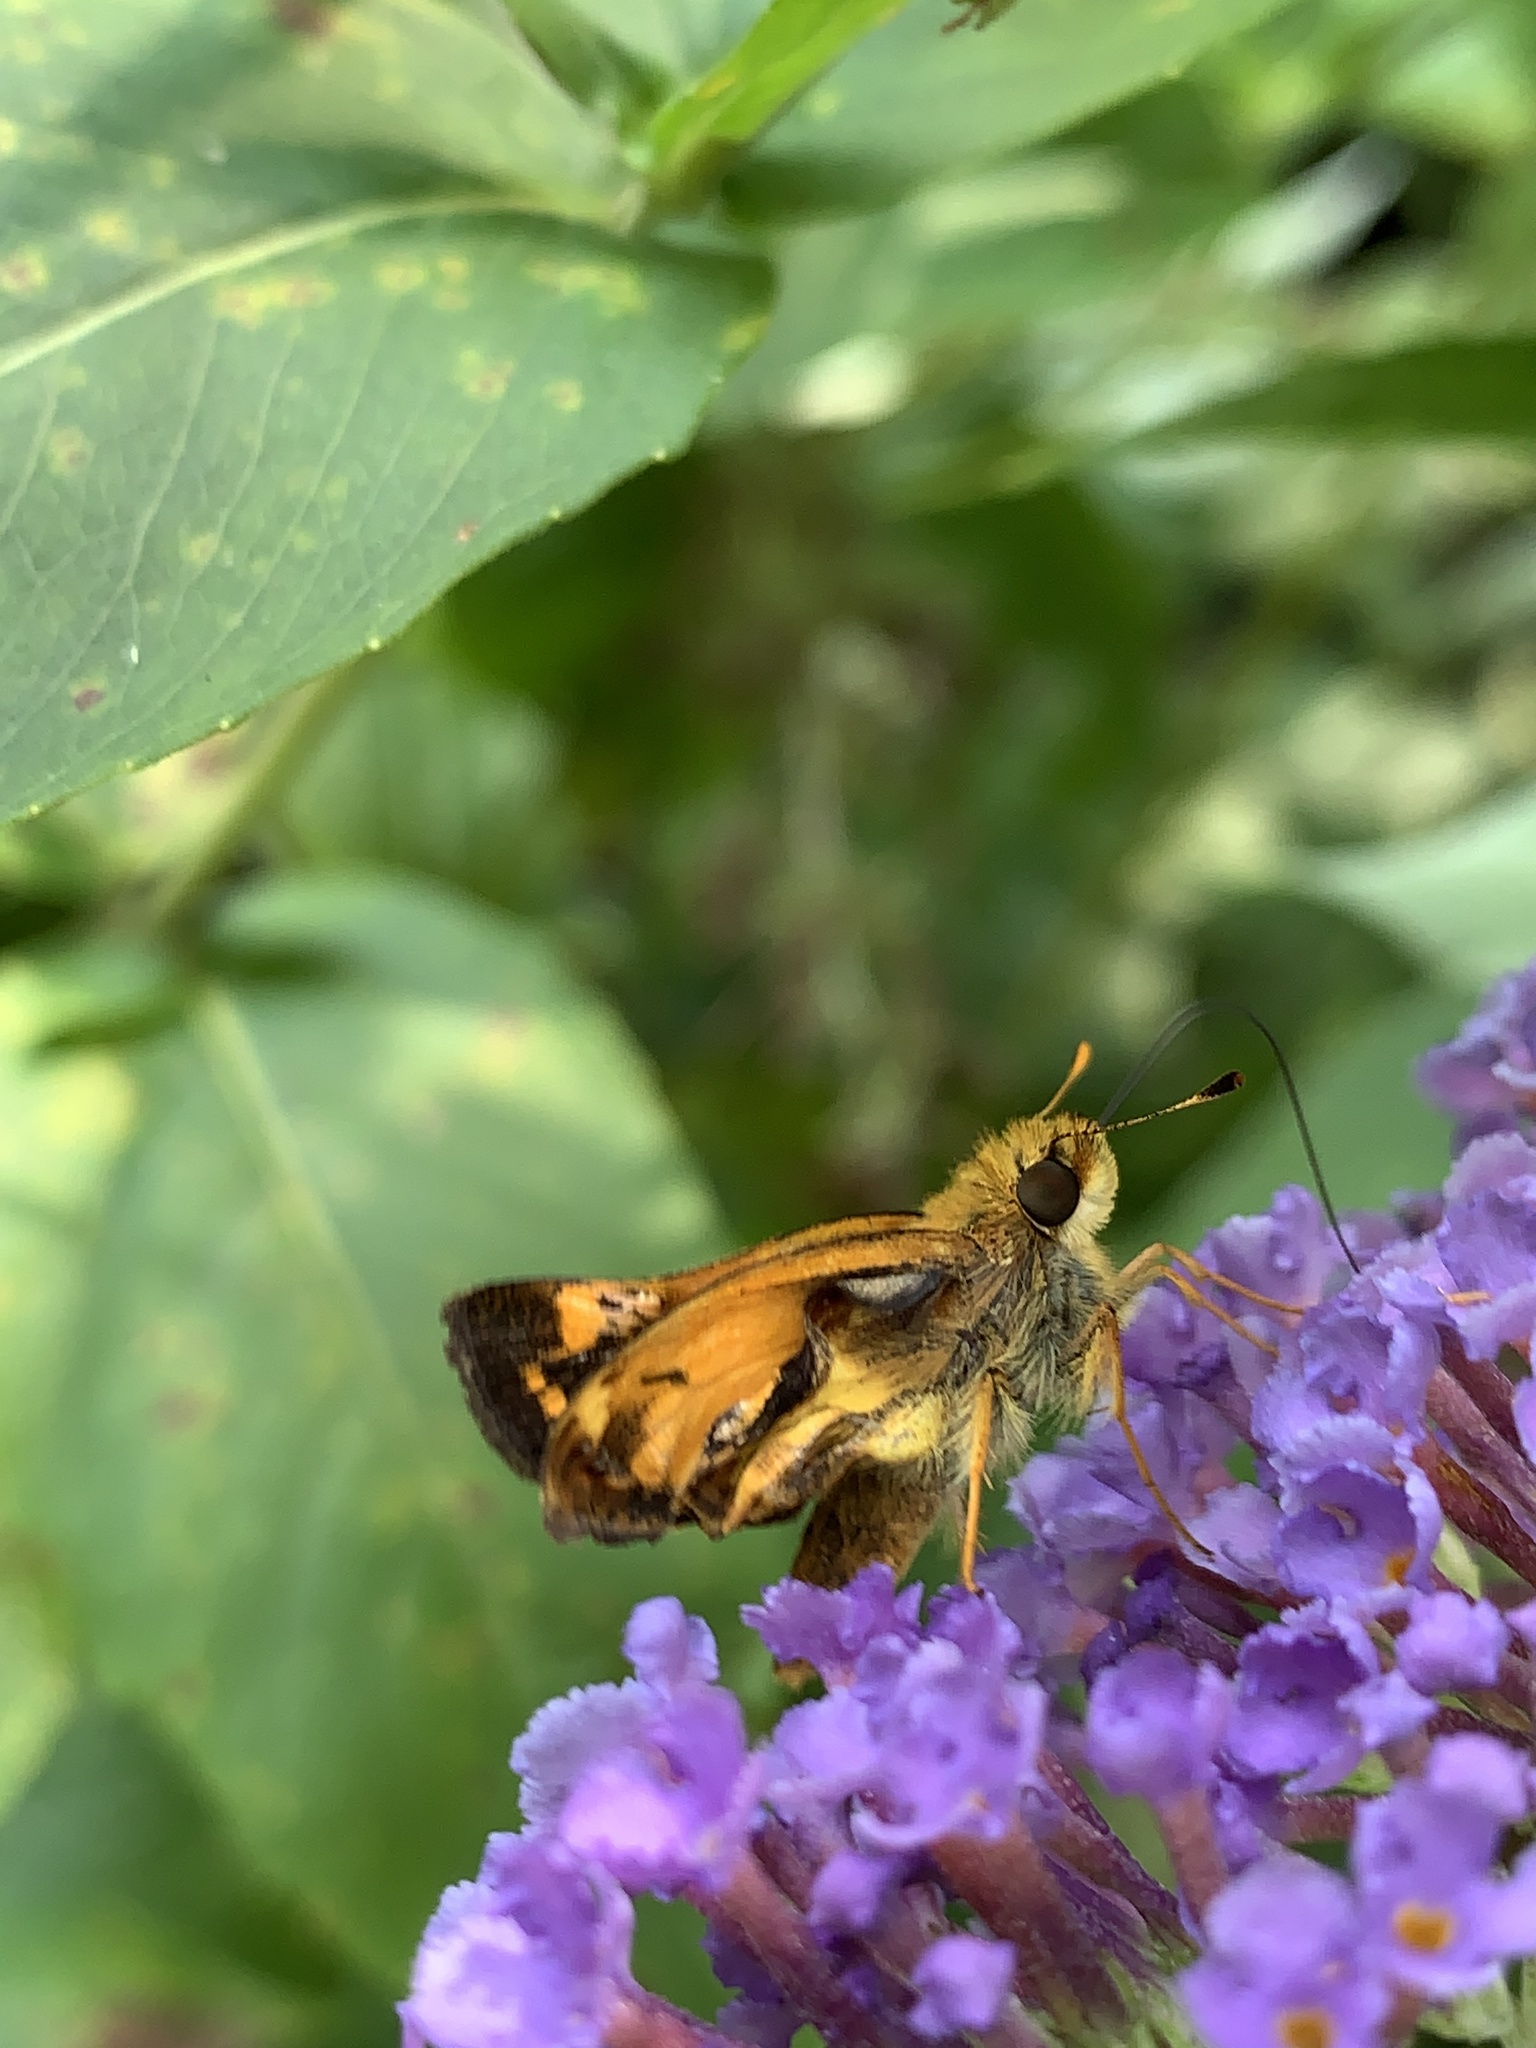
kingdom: Animalia
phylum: Arthropoda
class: Insecta
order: Lepidoptera
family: Hesperiidae
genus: Lon
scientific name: Lon zabulon
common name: Zabulon skipper
